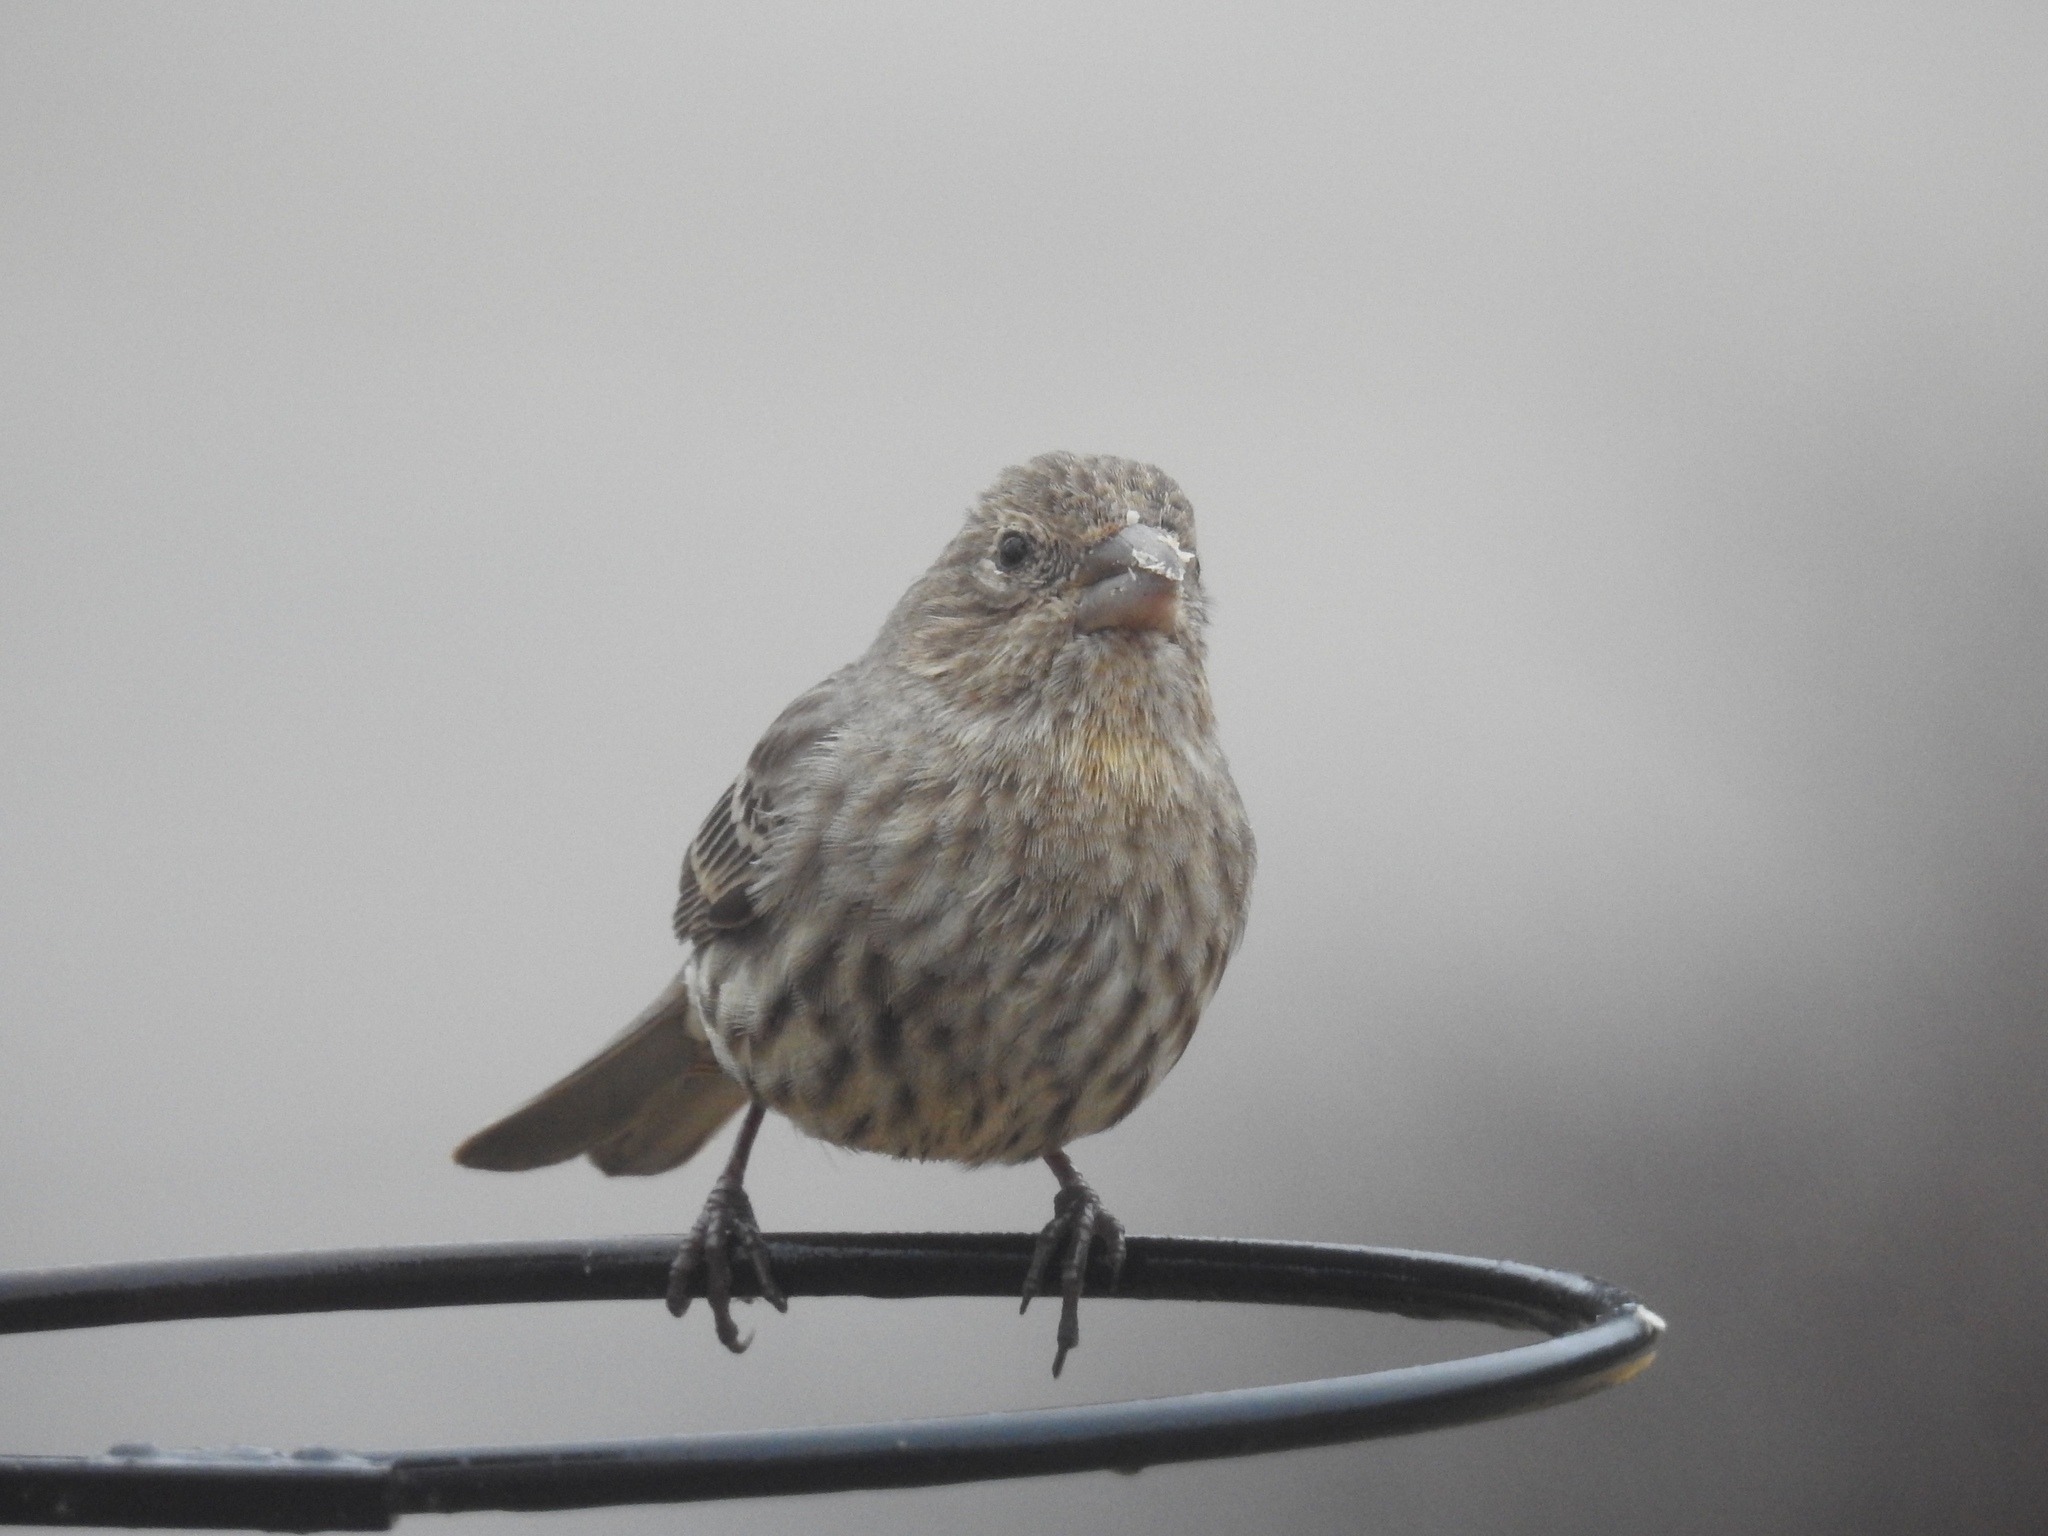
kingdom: Animalia
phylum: Chordata
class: Aves
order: Passeriformes
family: Fringillidae
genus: Haemorhous
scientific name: Haemorhous mexicanus
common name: House finch
